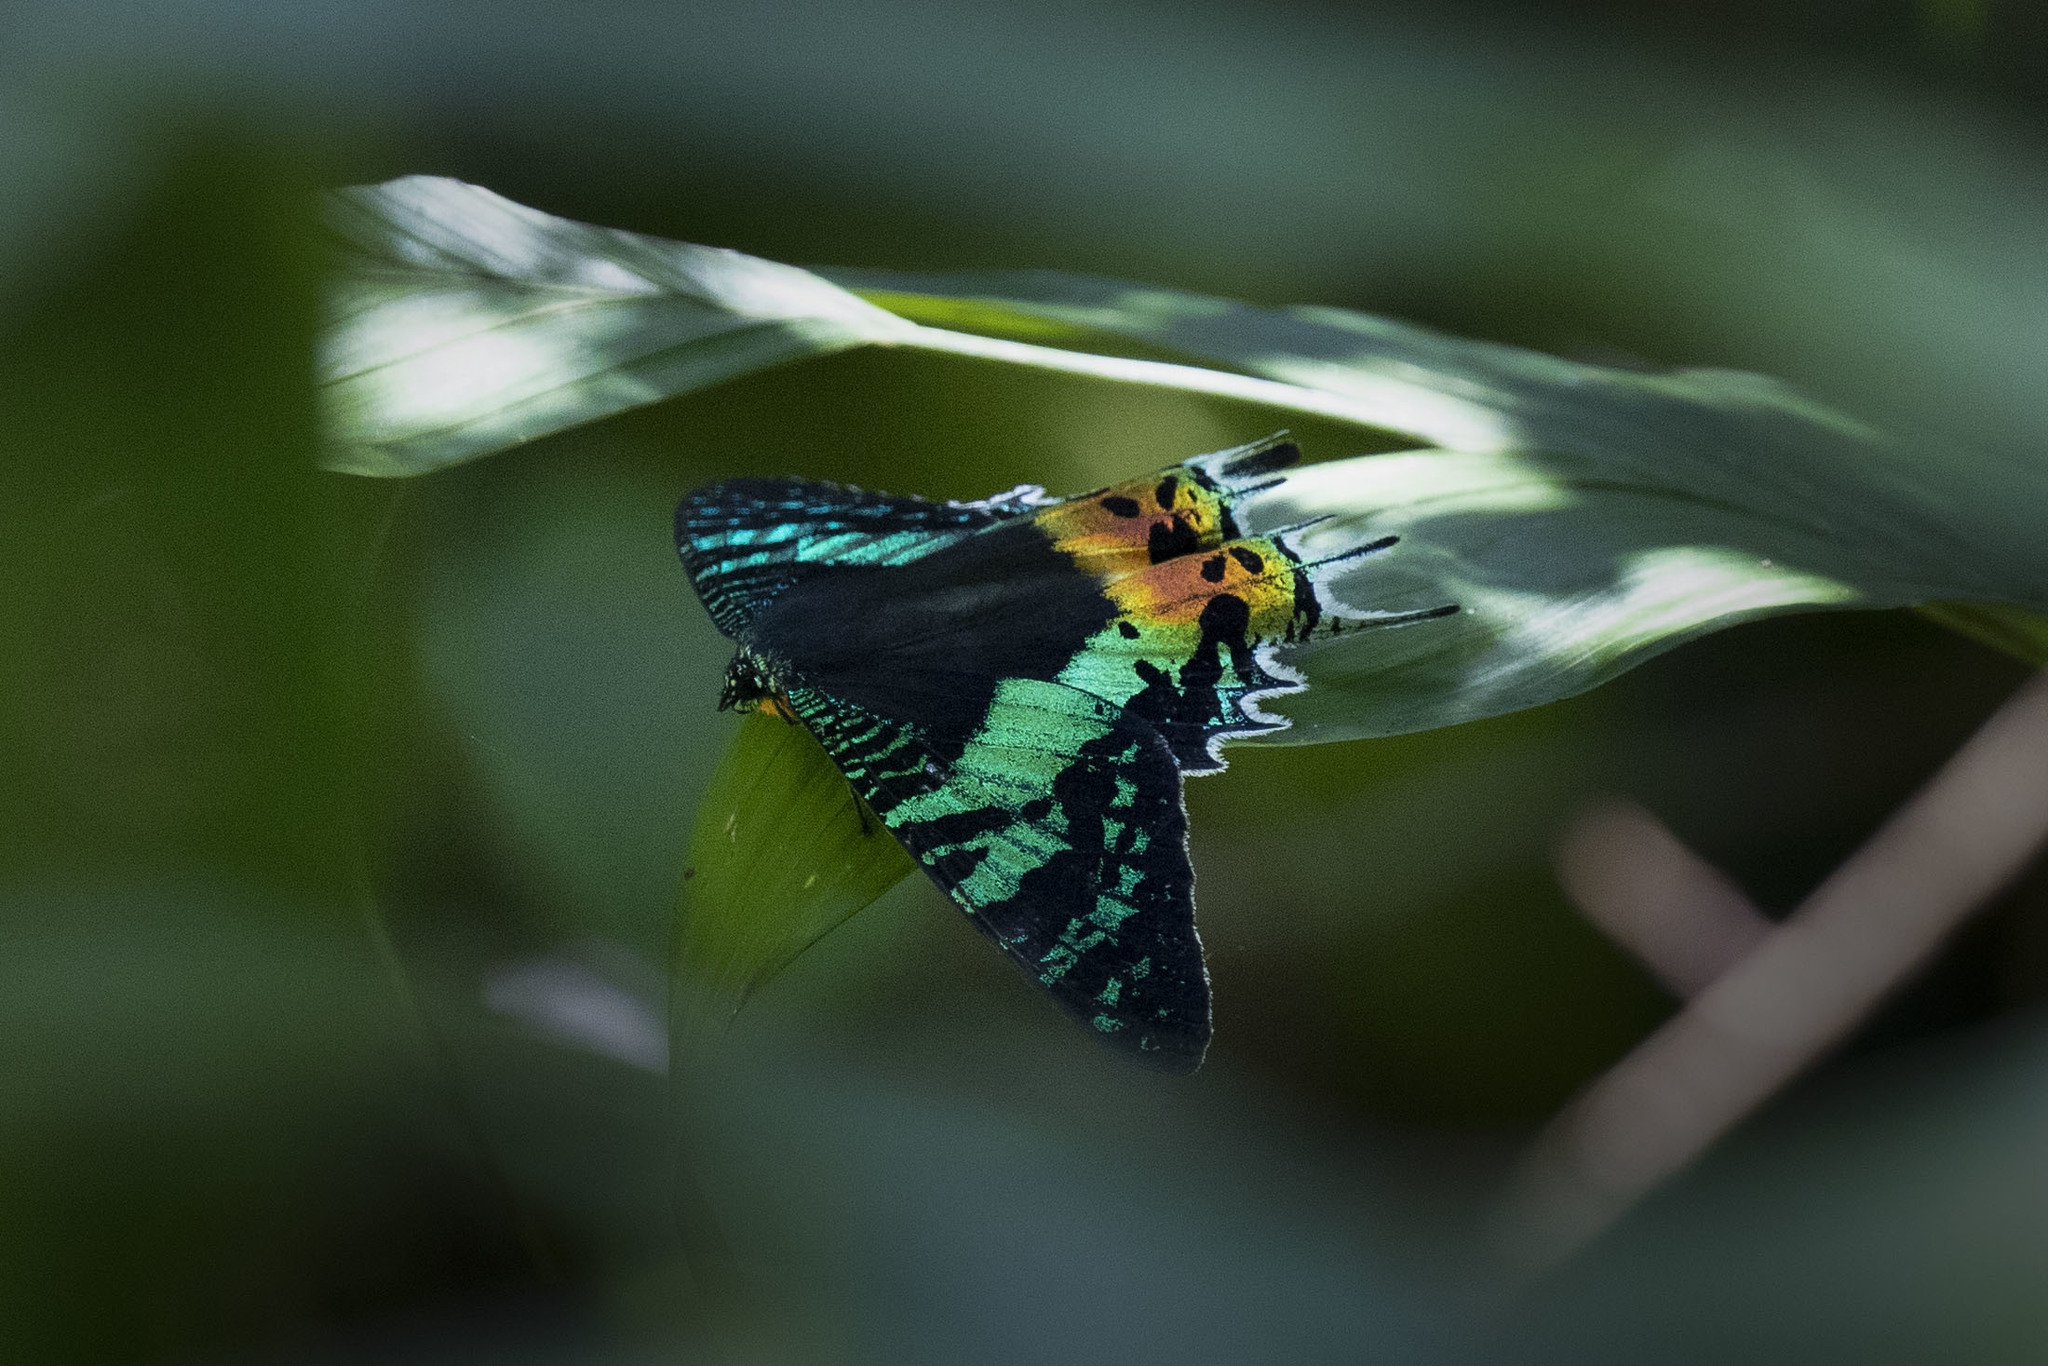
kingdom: Animalia
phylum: Arthropoda
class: Insecta
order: Lepidoptera
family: Uraniidae
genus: Chrysiridia
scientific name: Chrysiridia rhipheus
